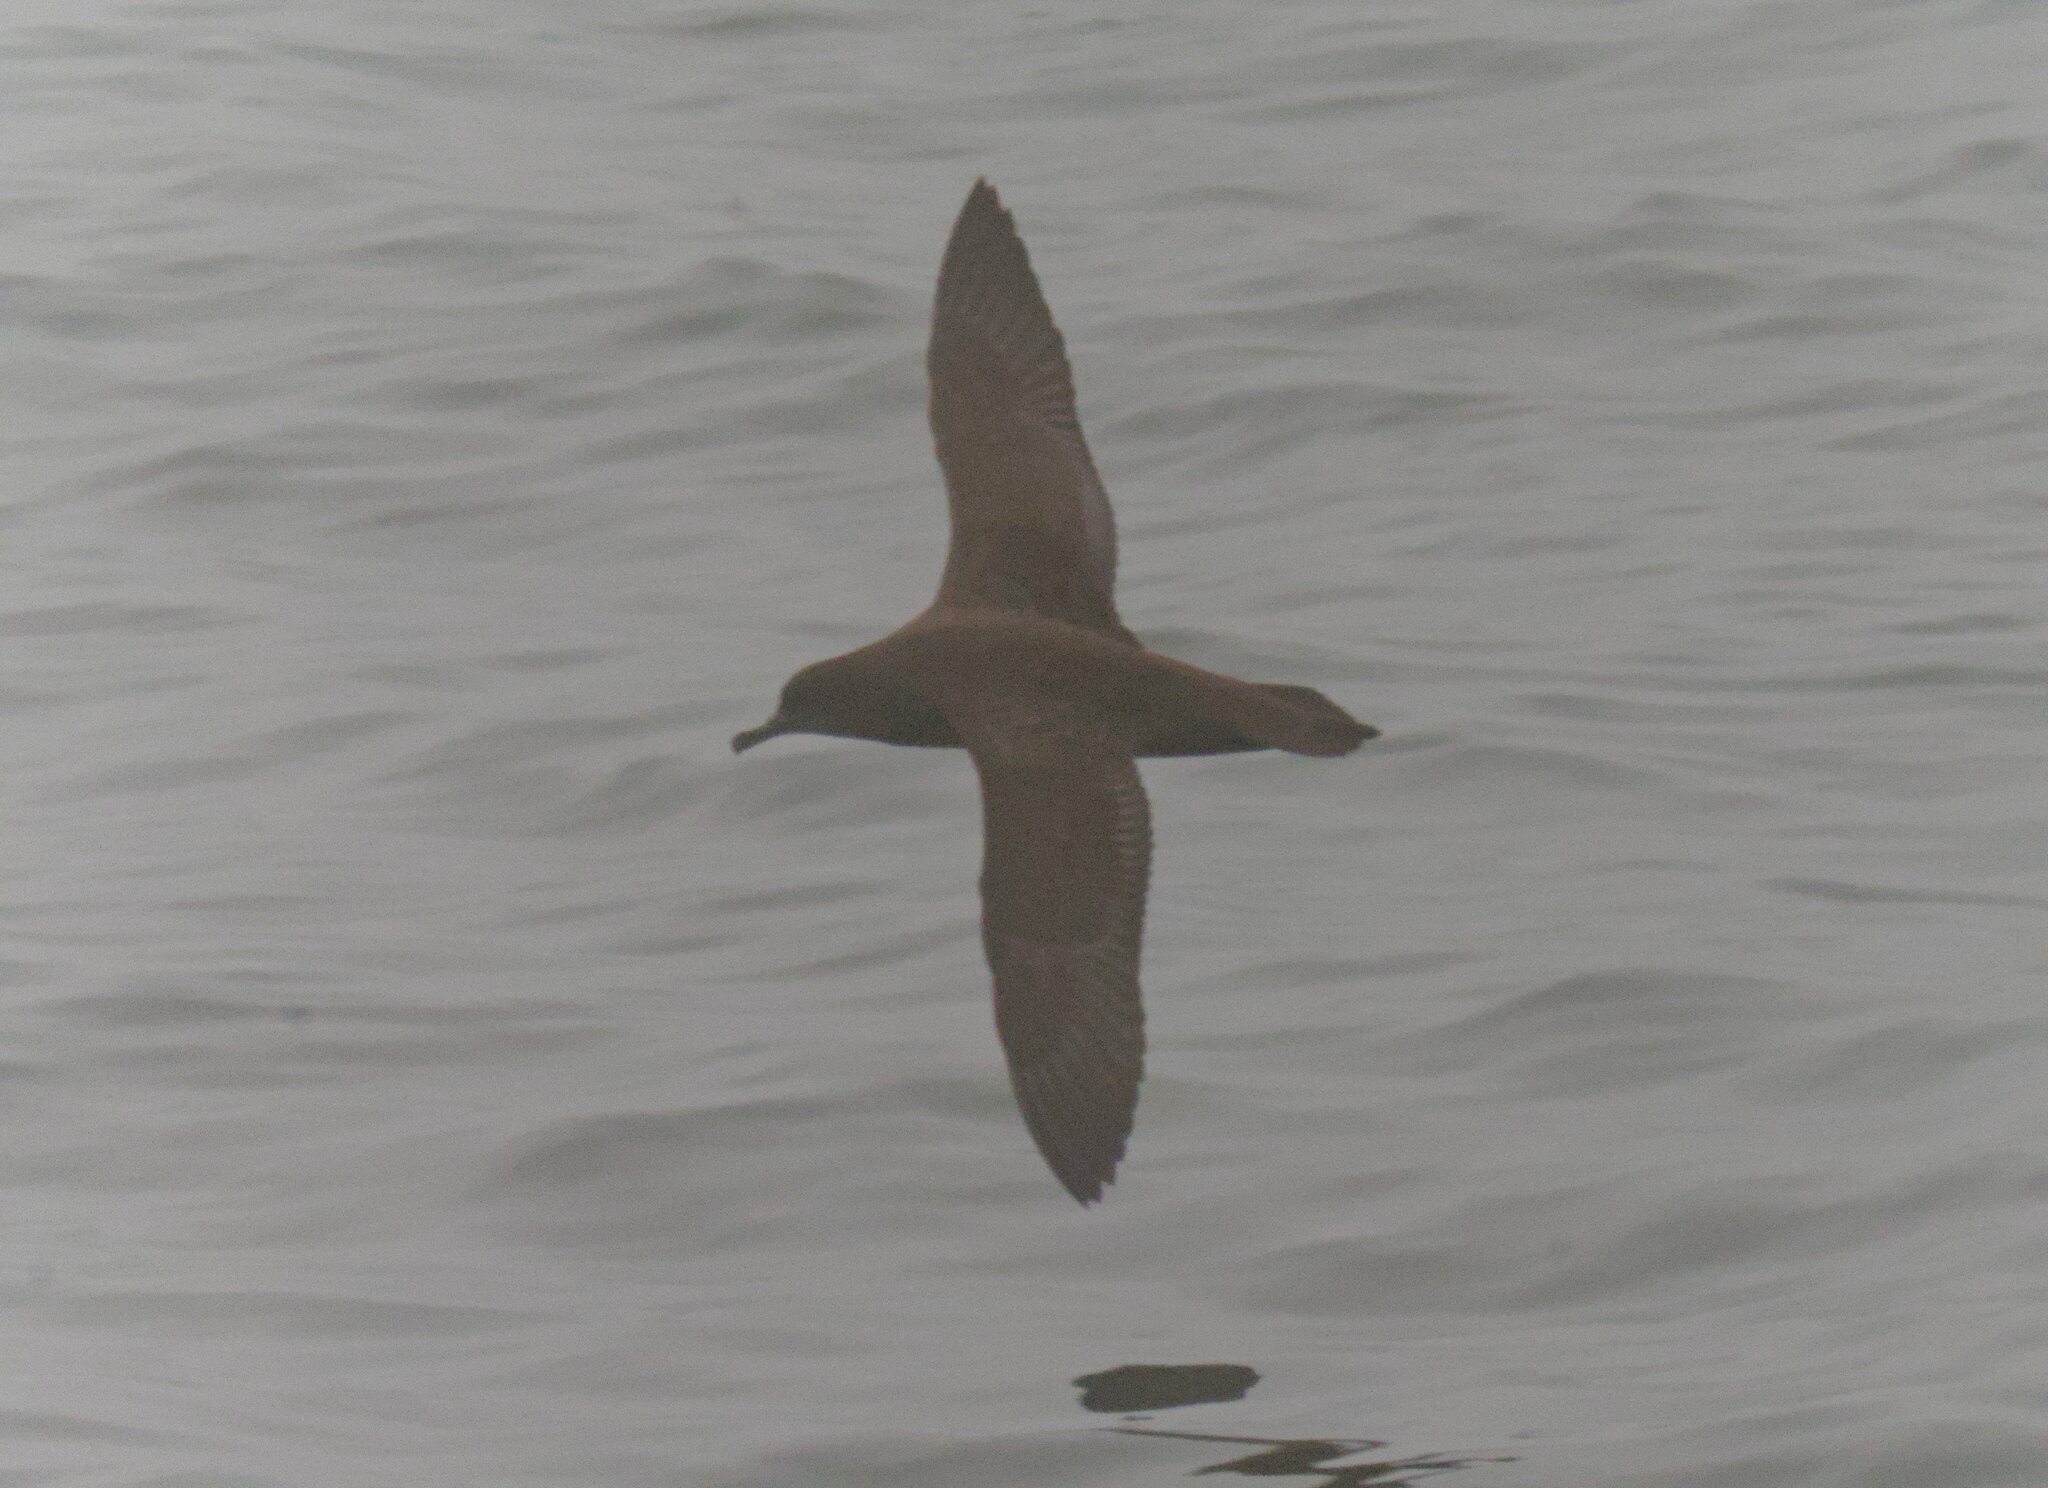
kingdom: Animalia
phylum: Chordata
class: Aves
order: Procellariiformes
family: Procellariidae
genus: Puffinus
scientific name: Puffinus griseus
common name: Sooty shearwater
